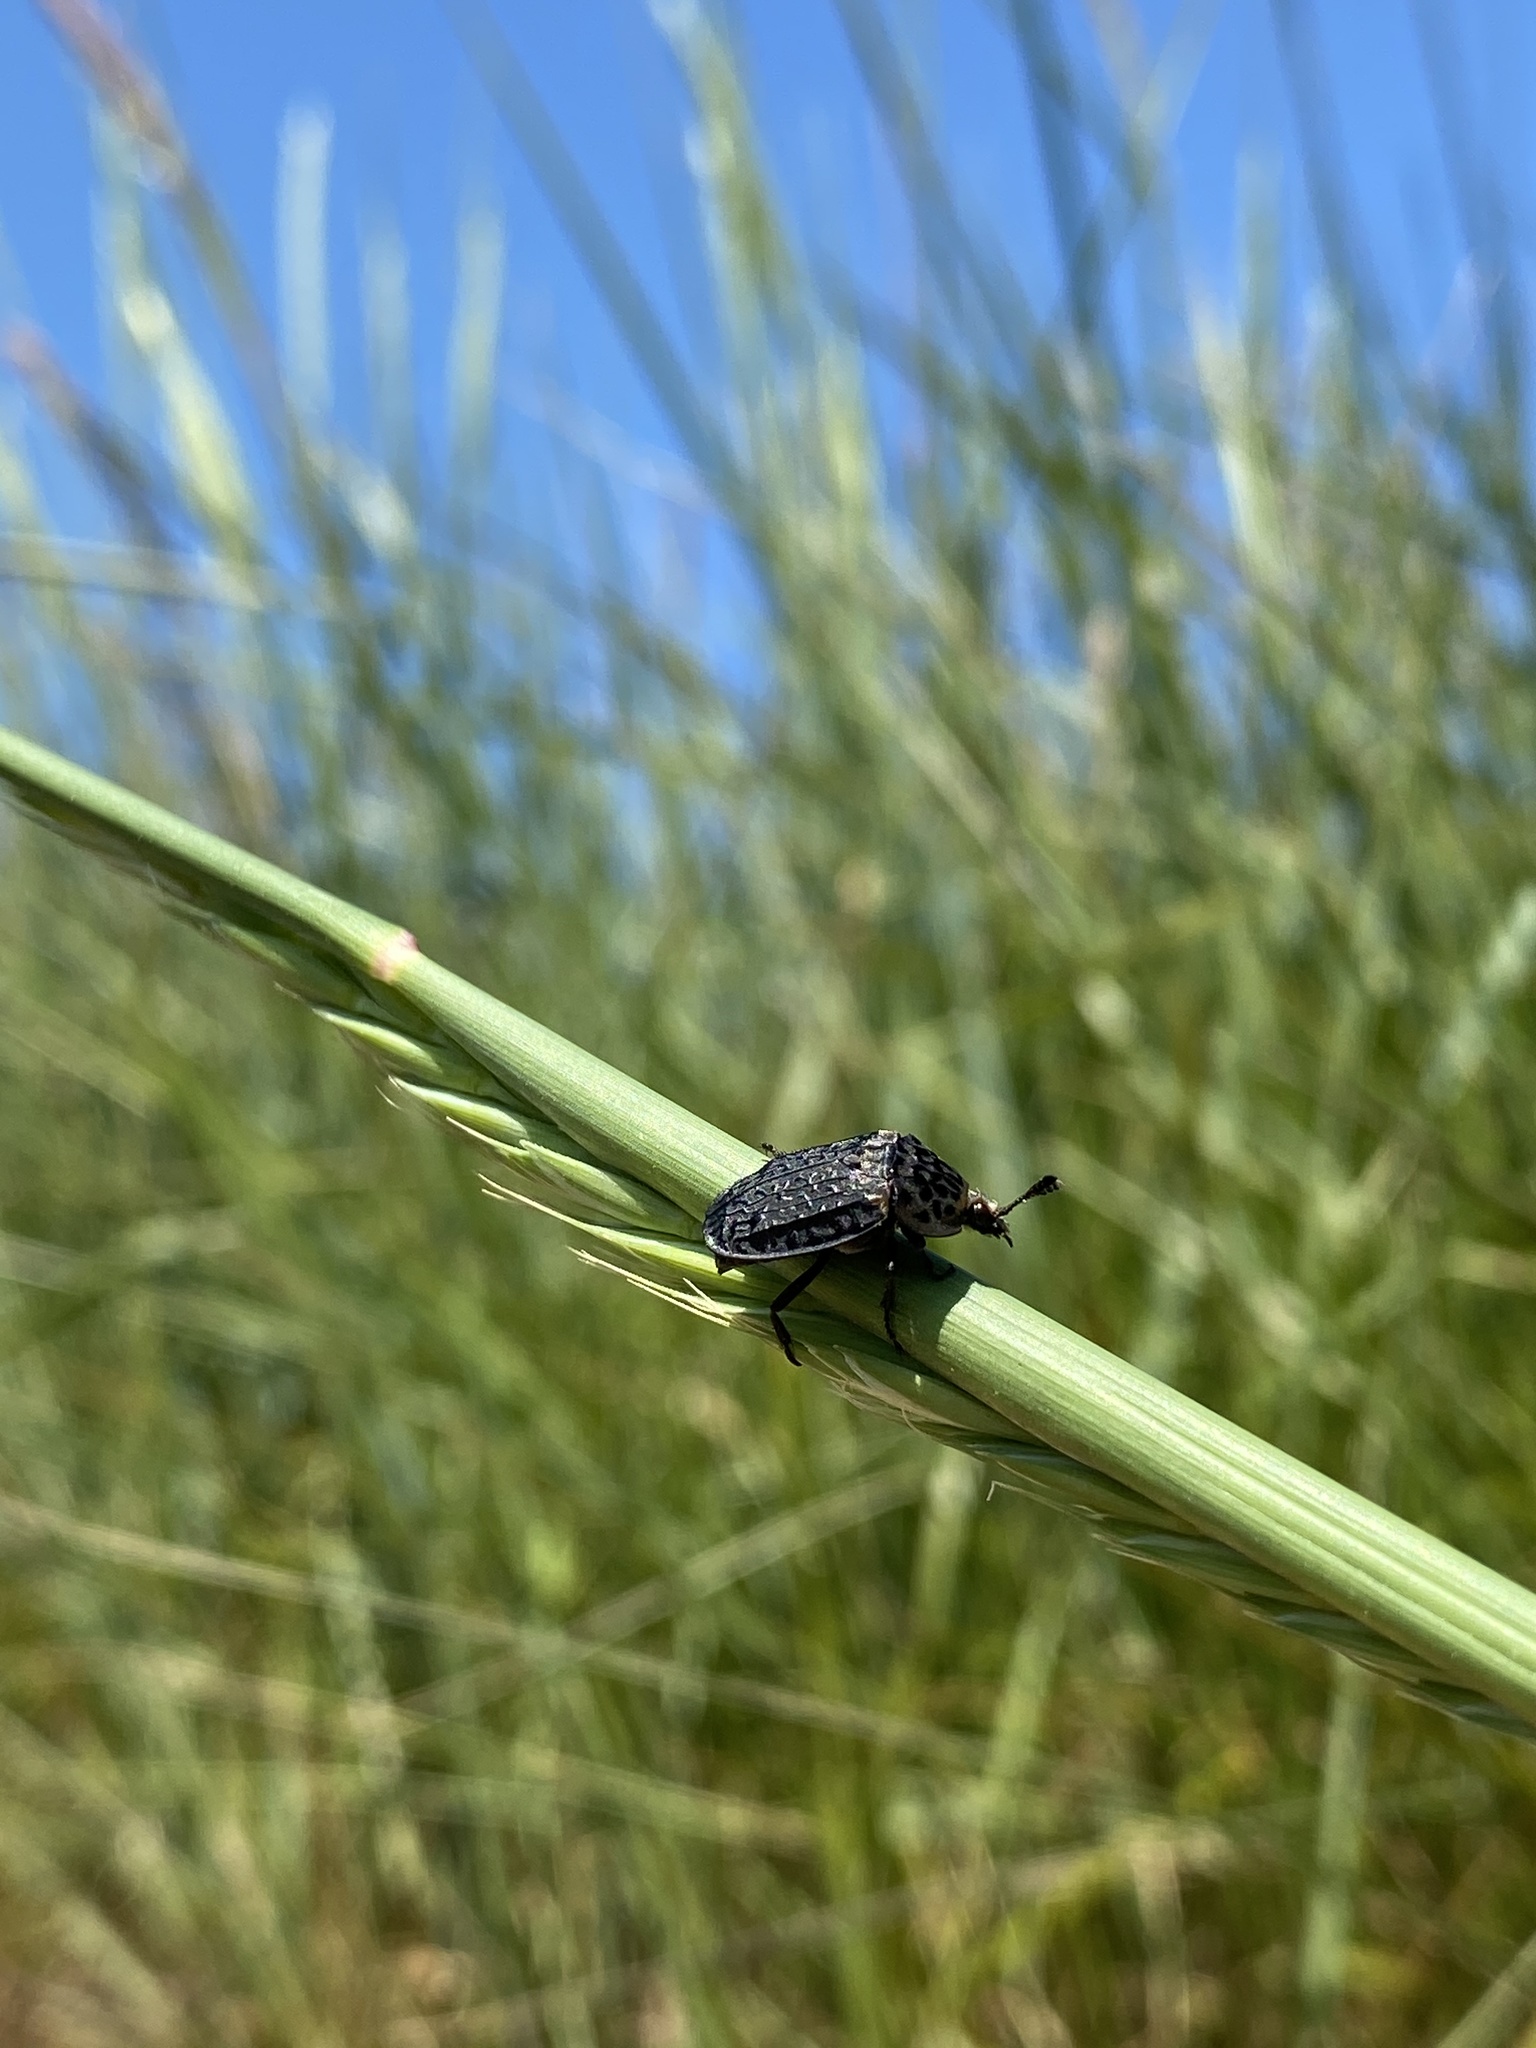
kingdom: Animalia
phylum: Arthropoda
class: Insecta
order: Coleoptera
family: Staphylinidae
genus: Thanatophilus
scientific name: Thanatophilus rugosus
